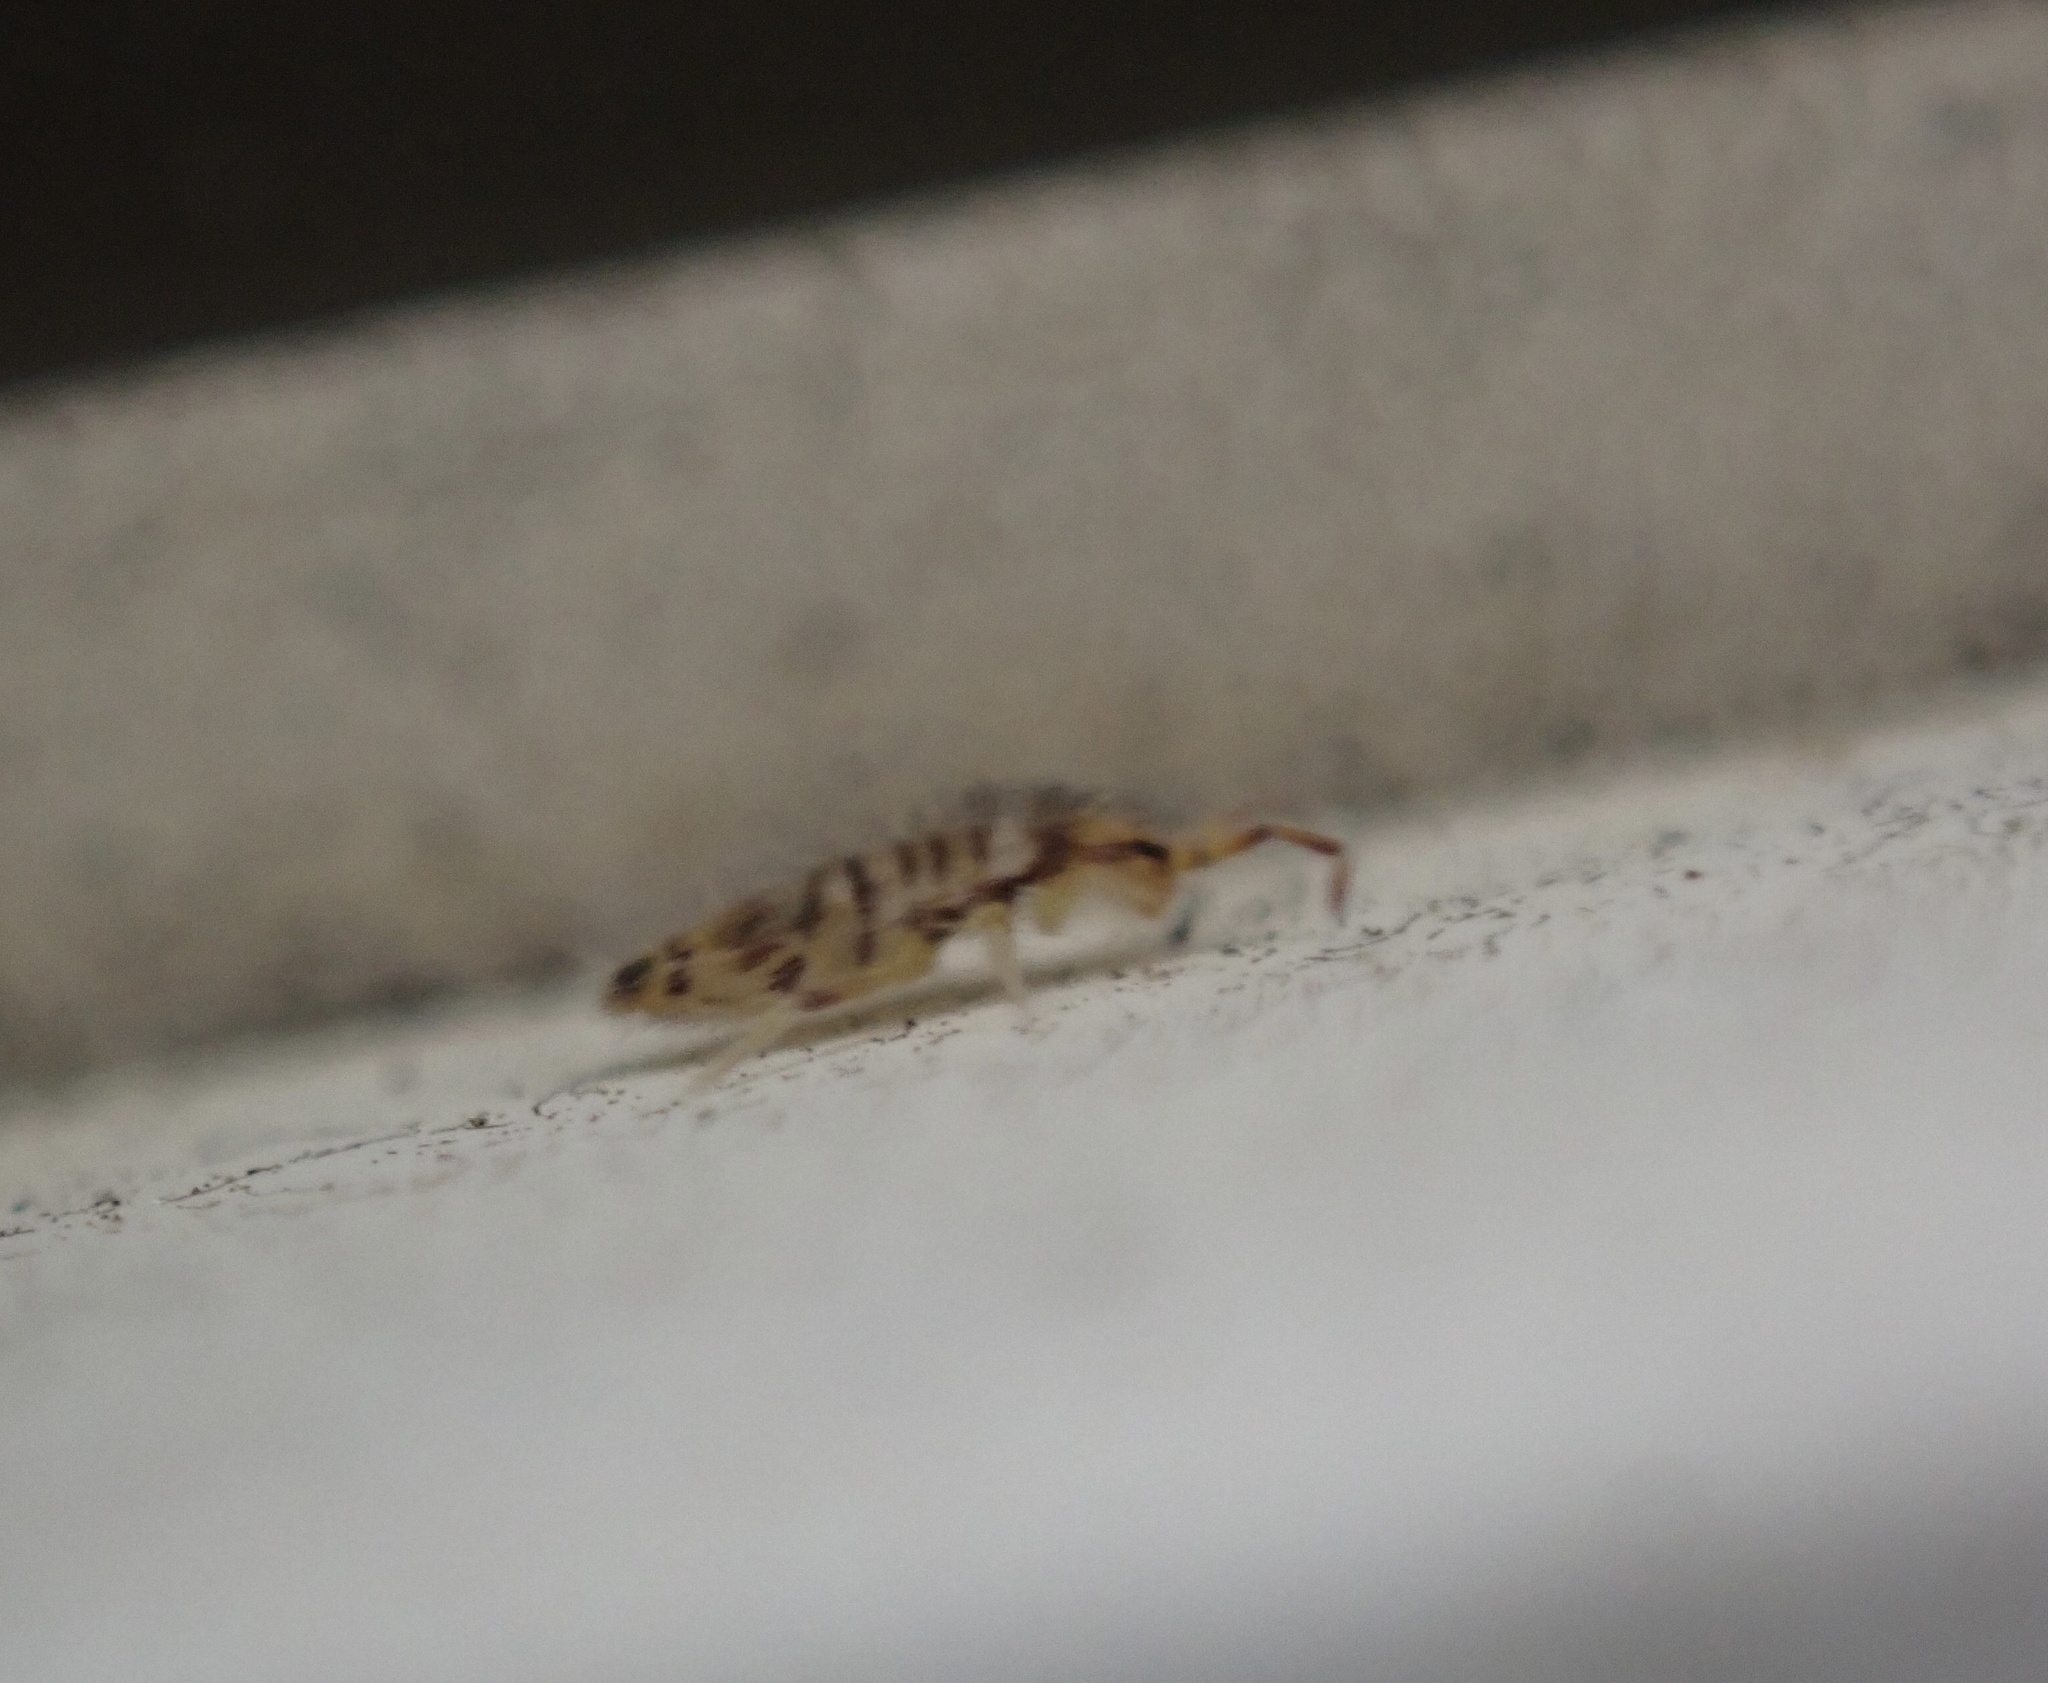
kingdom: Animalia
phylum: Arthropoda
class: Collembola
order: Entomobryomorpha
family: Entomobryidae
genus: Entomobrya
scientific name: Entomobrya atrocincta
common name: Springtail
